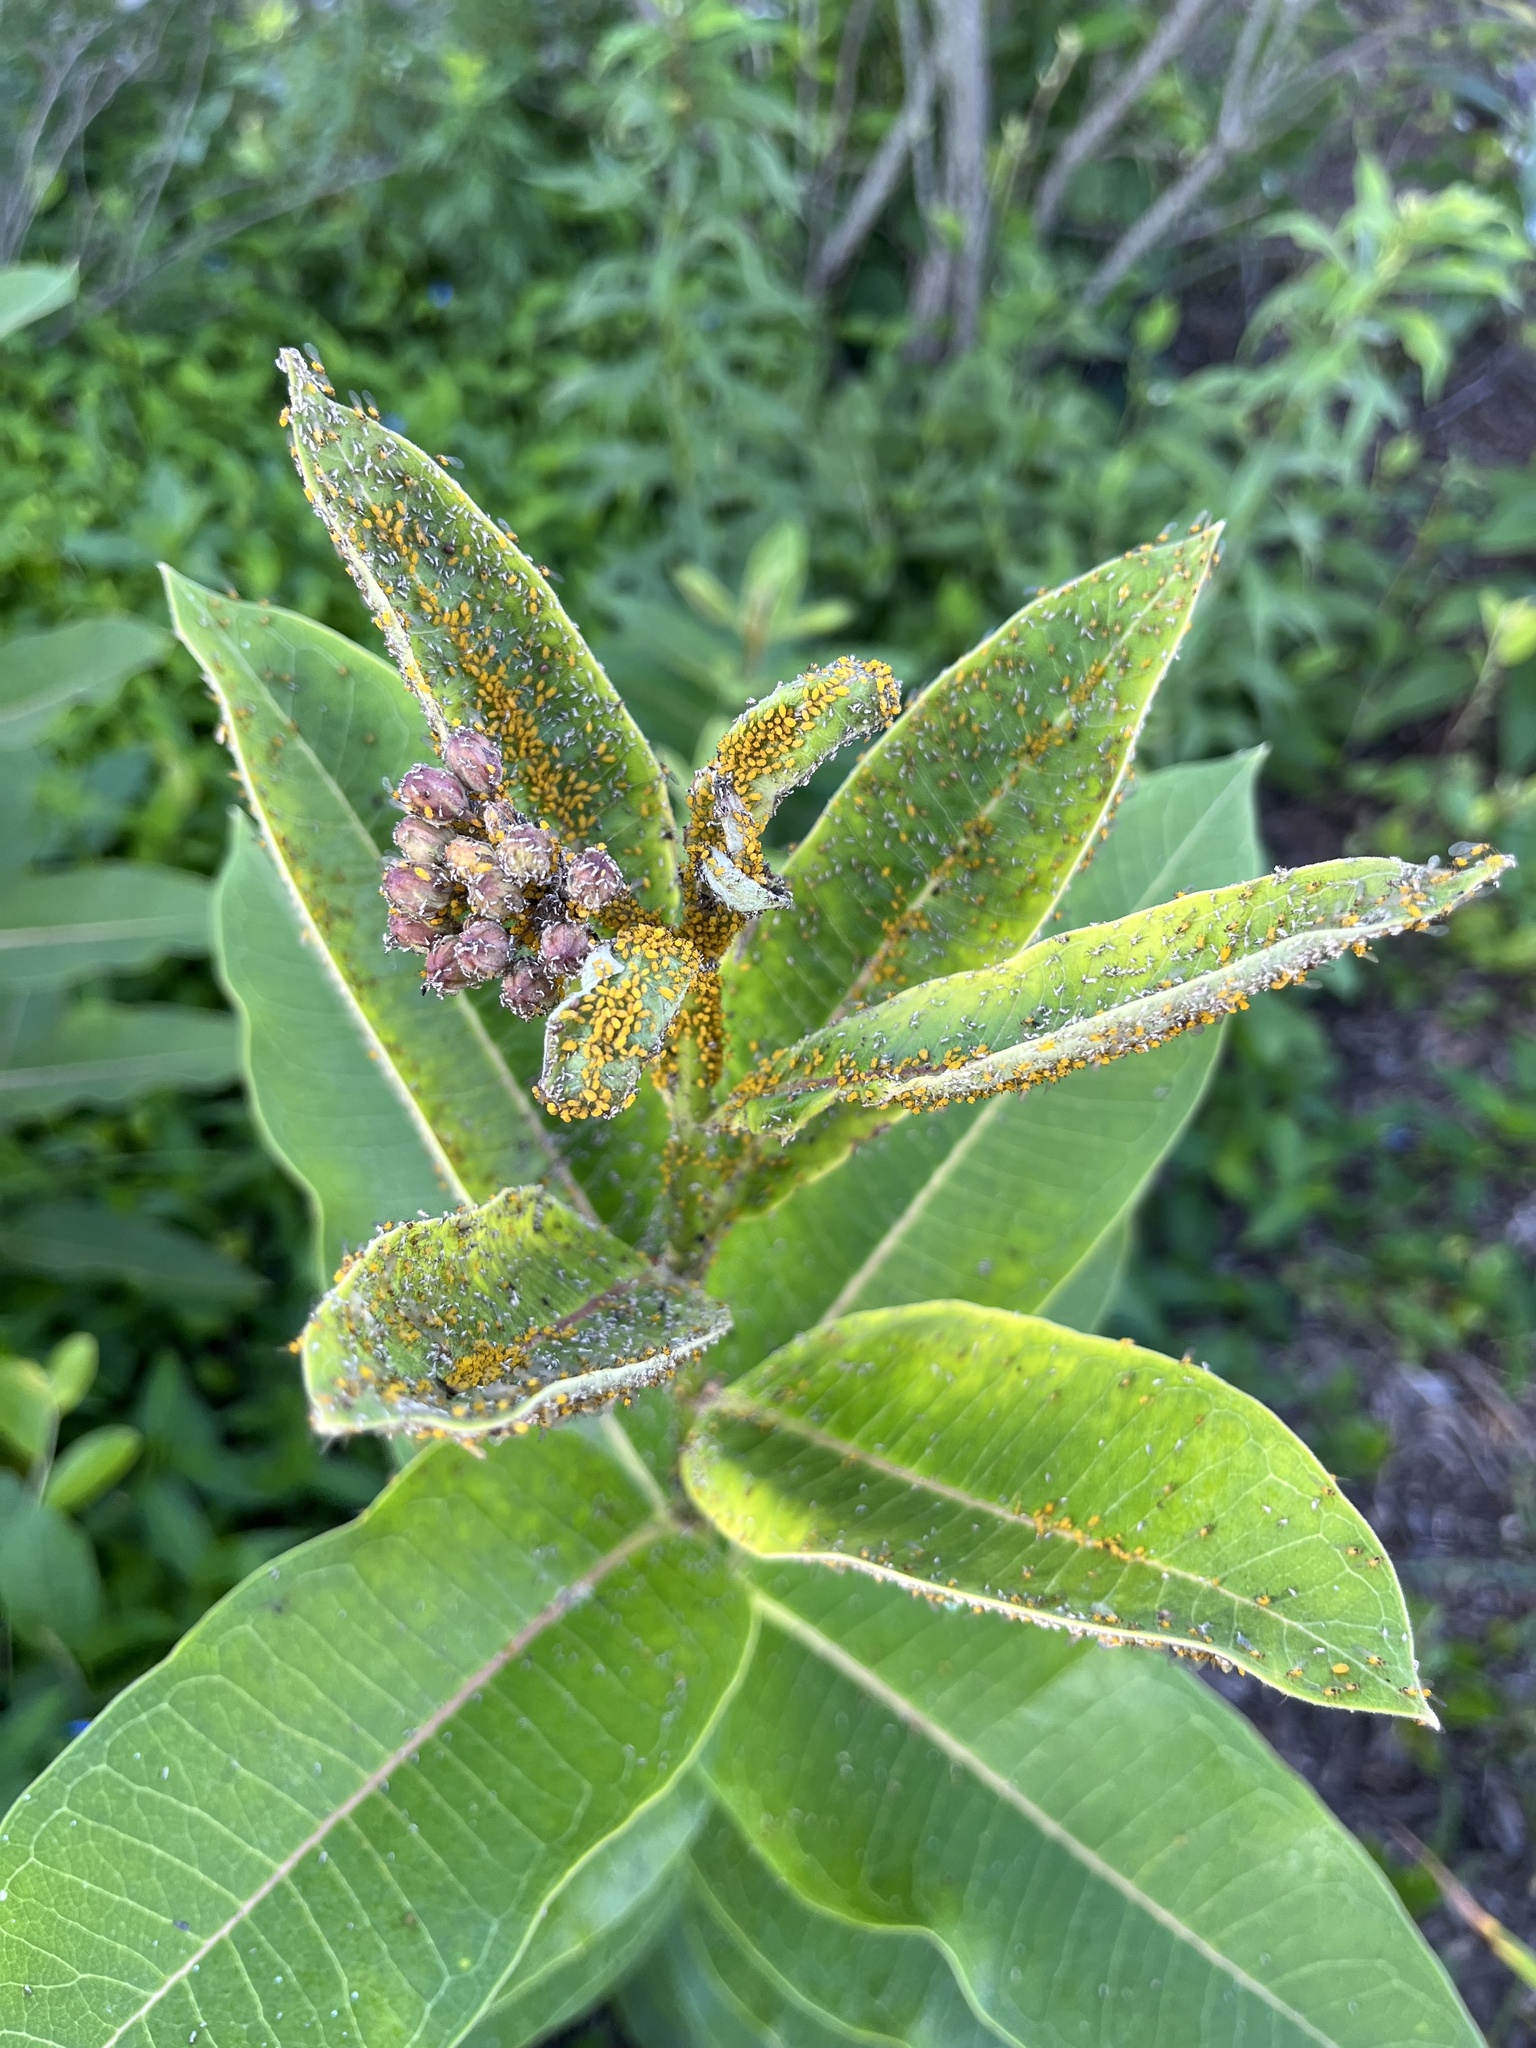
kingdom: Plantae
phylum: Tracheophyta
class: Magnoliopsida
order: Gentianales
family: Apocynaceae
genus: Asclepias
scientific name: Asclepias syriaca
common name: Common milkweed
